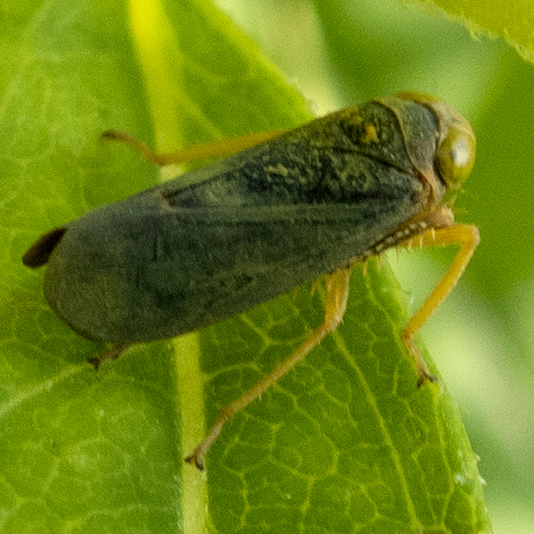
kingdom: Animalia
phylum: Arthropoda
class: Insecta
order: Hemiptera
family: Cicadellidae
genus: Jikradia
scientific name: Jikradia olitoria
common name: Coppery leafhopper
